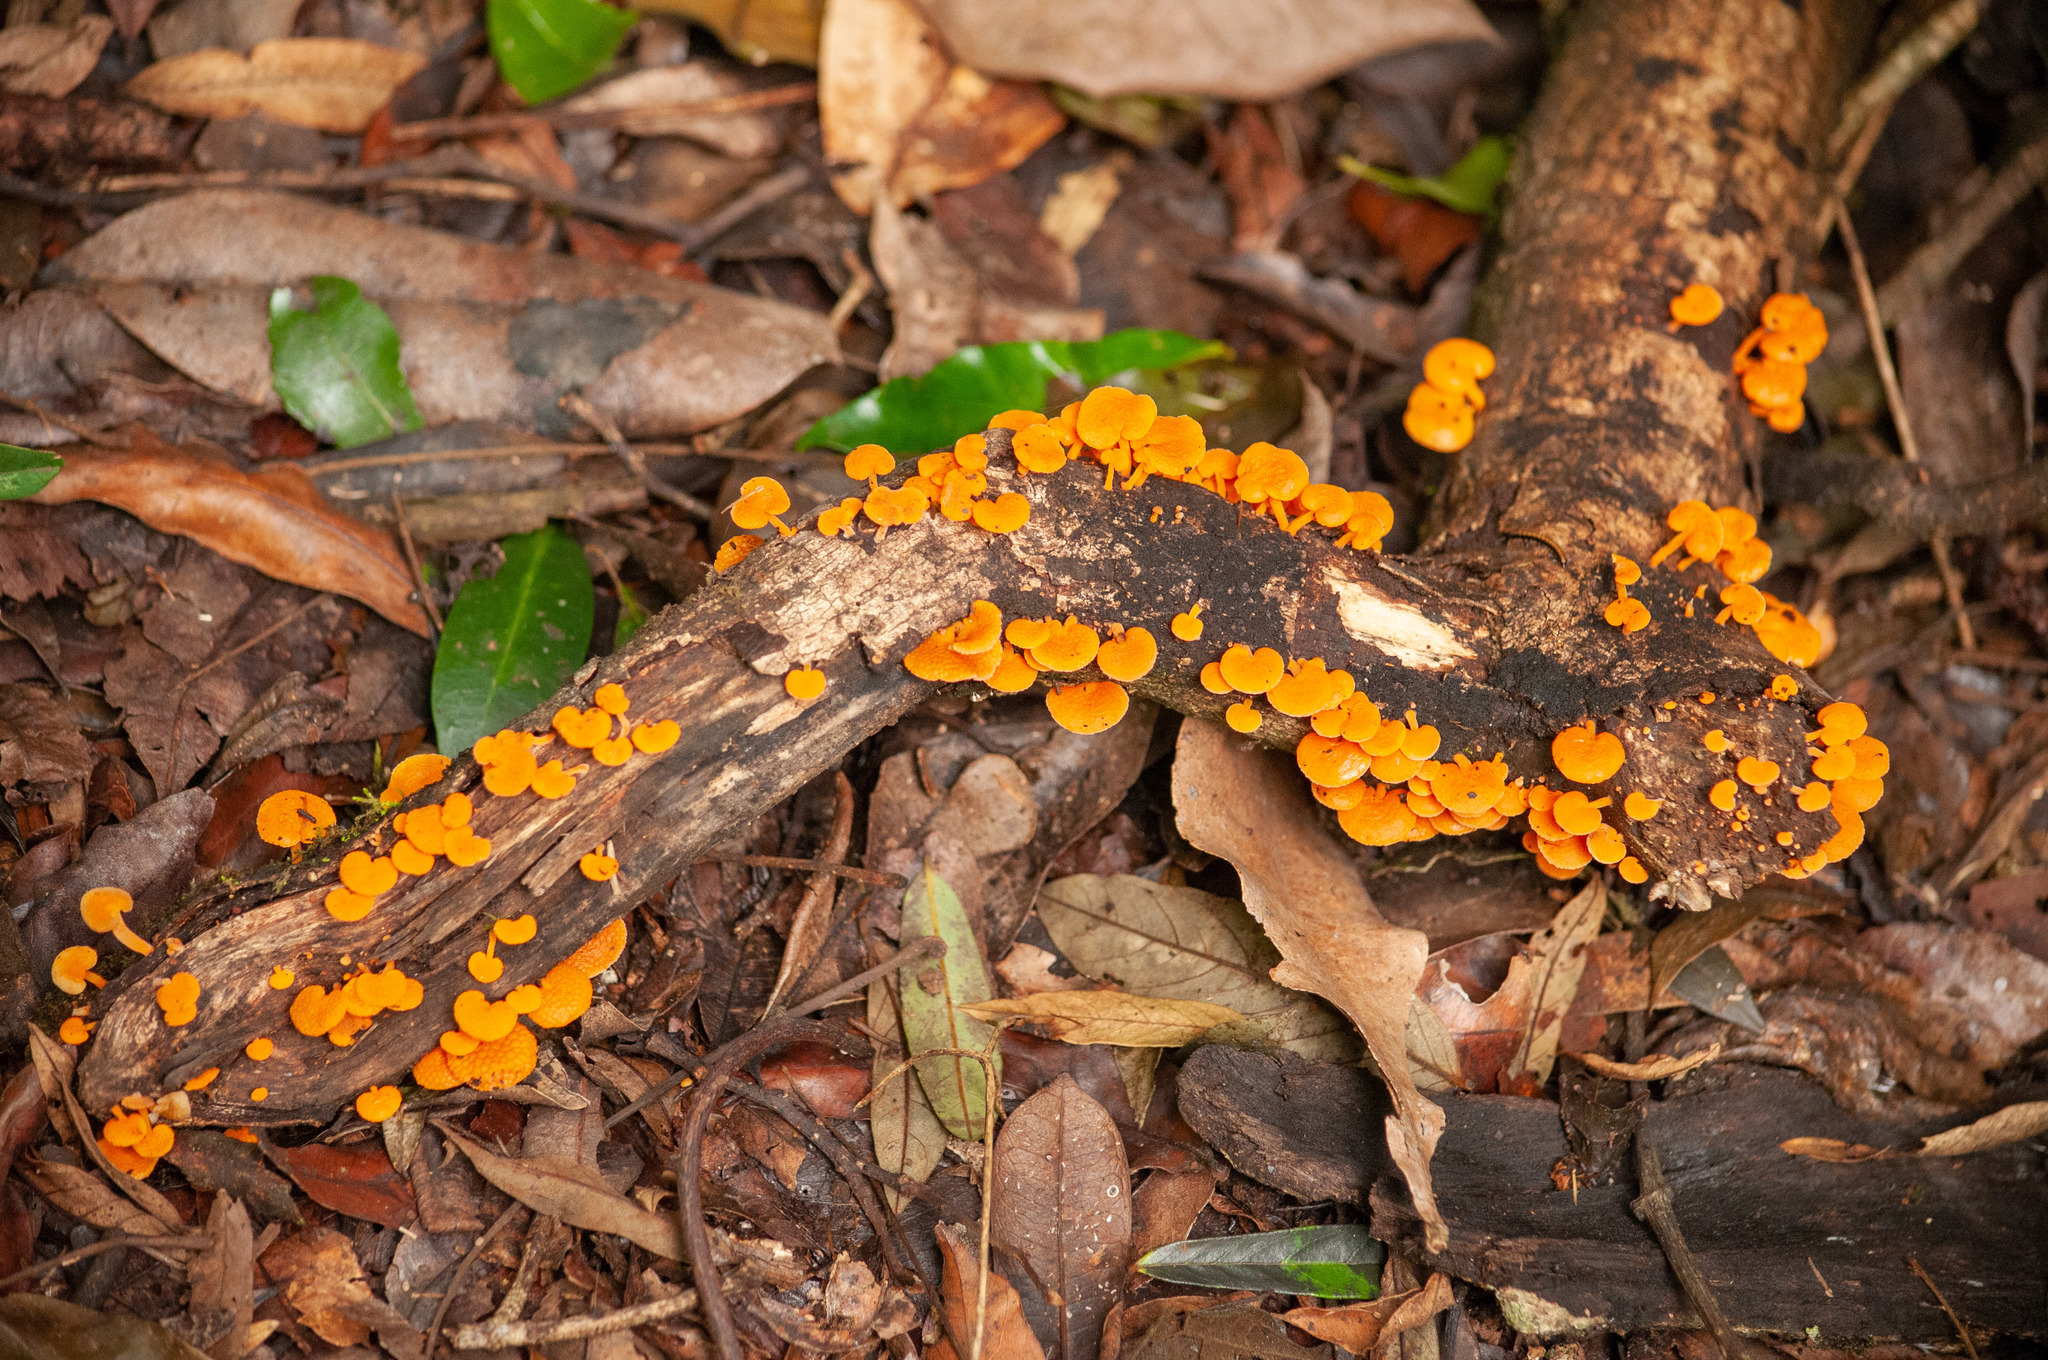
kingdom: Fungi
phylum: Basidiomycota
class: Agaricomycetes
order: Agaricales
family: Mycenaceae
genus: Favolaschia
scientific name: Favolaschia claudopus
